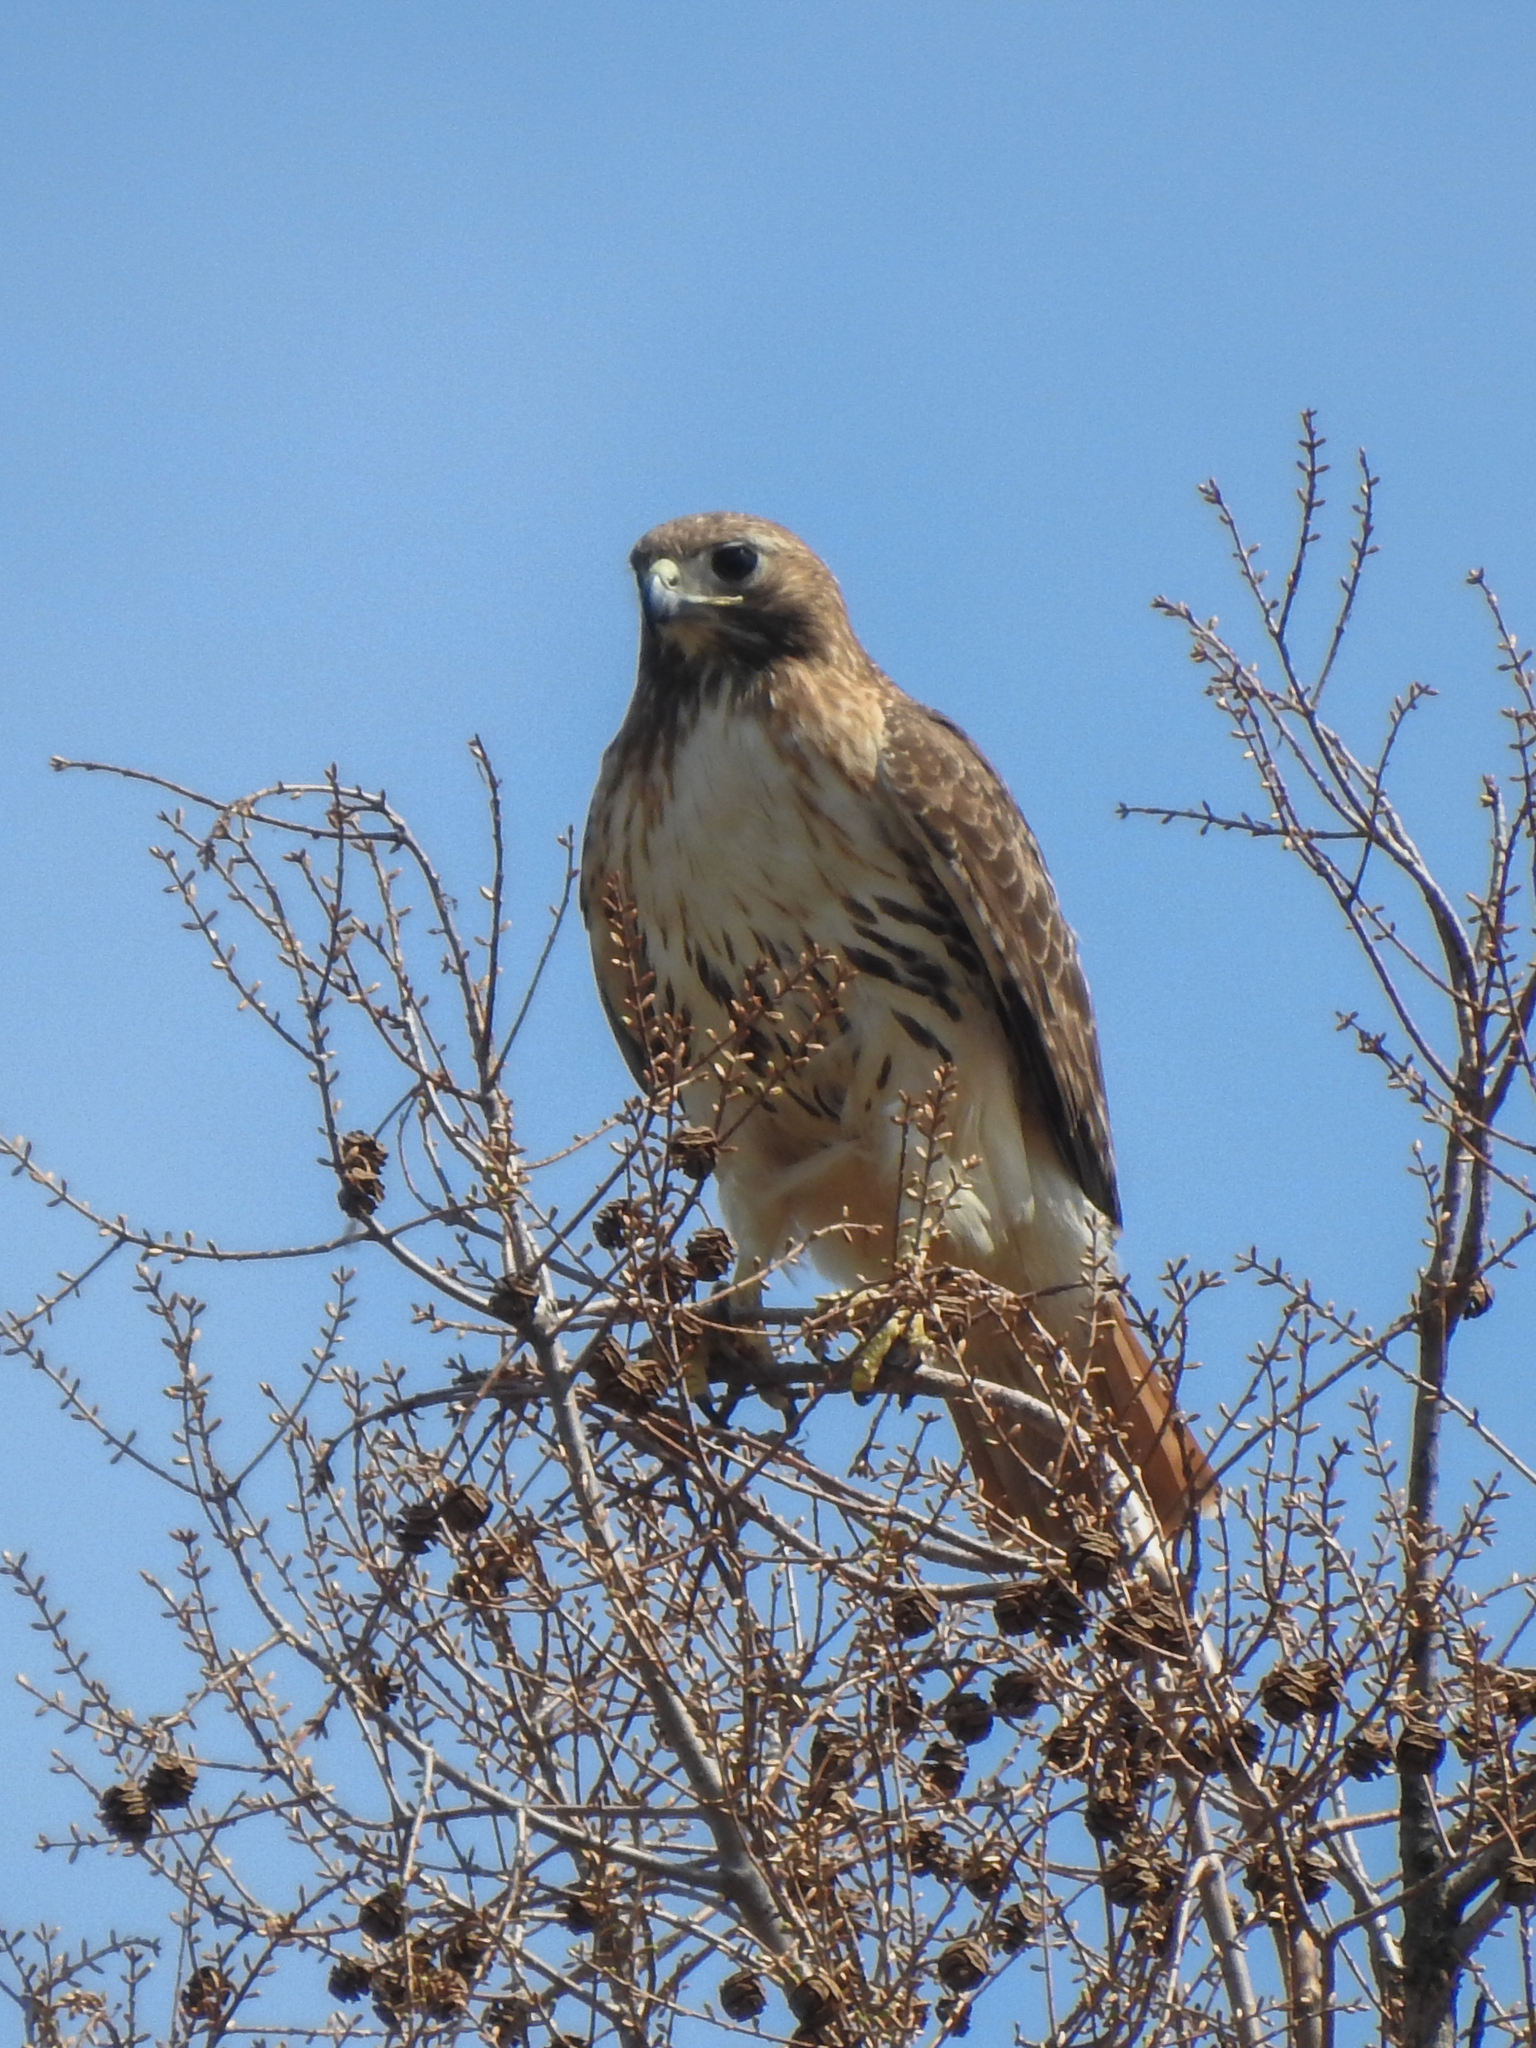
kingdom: Animalia
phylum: Chordata
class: Aves
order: Accipitriformes
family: Accipitridae
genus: Buteo
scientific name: Buteo jamaicensis
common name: Red-tailed hawk
